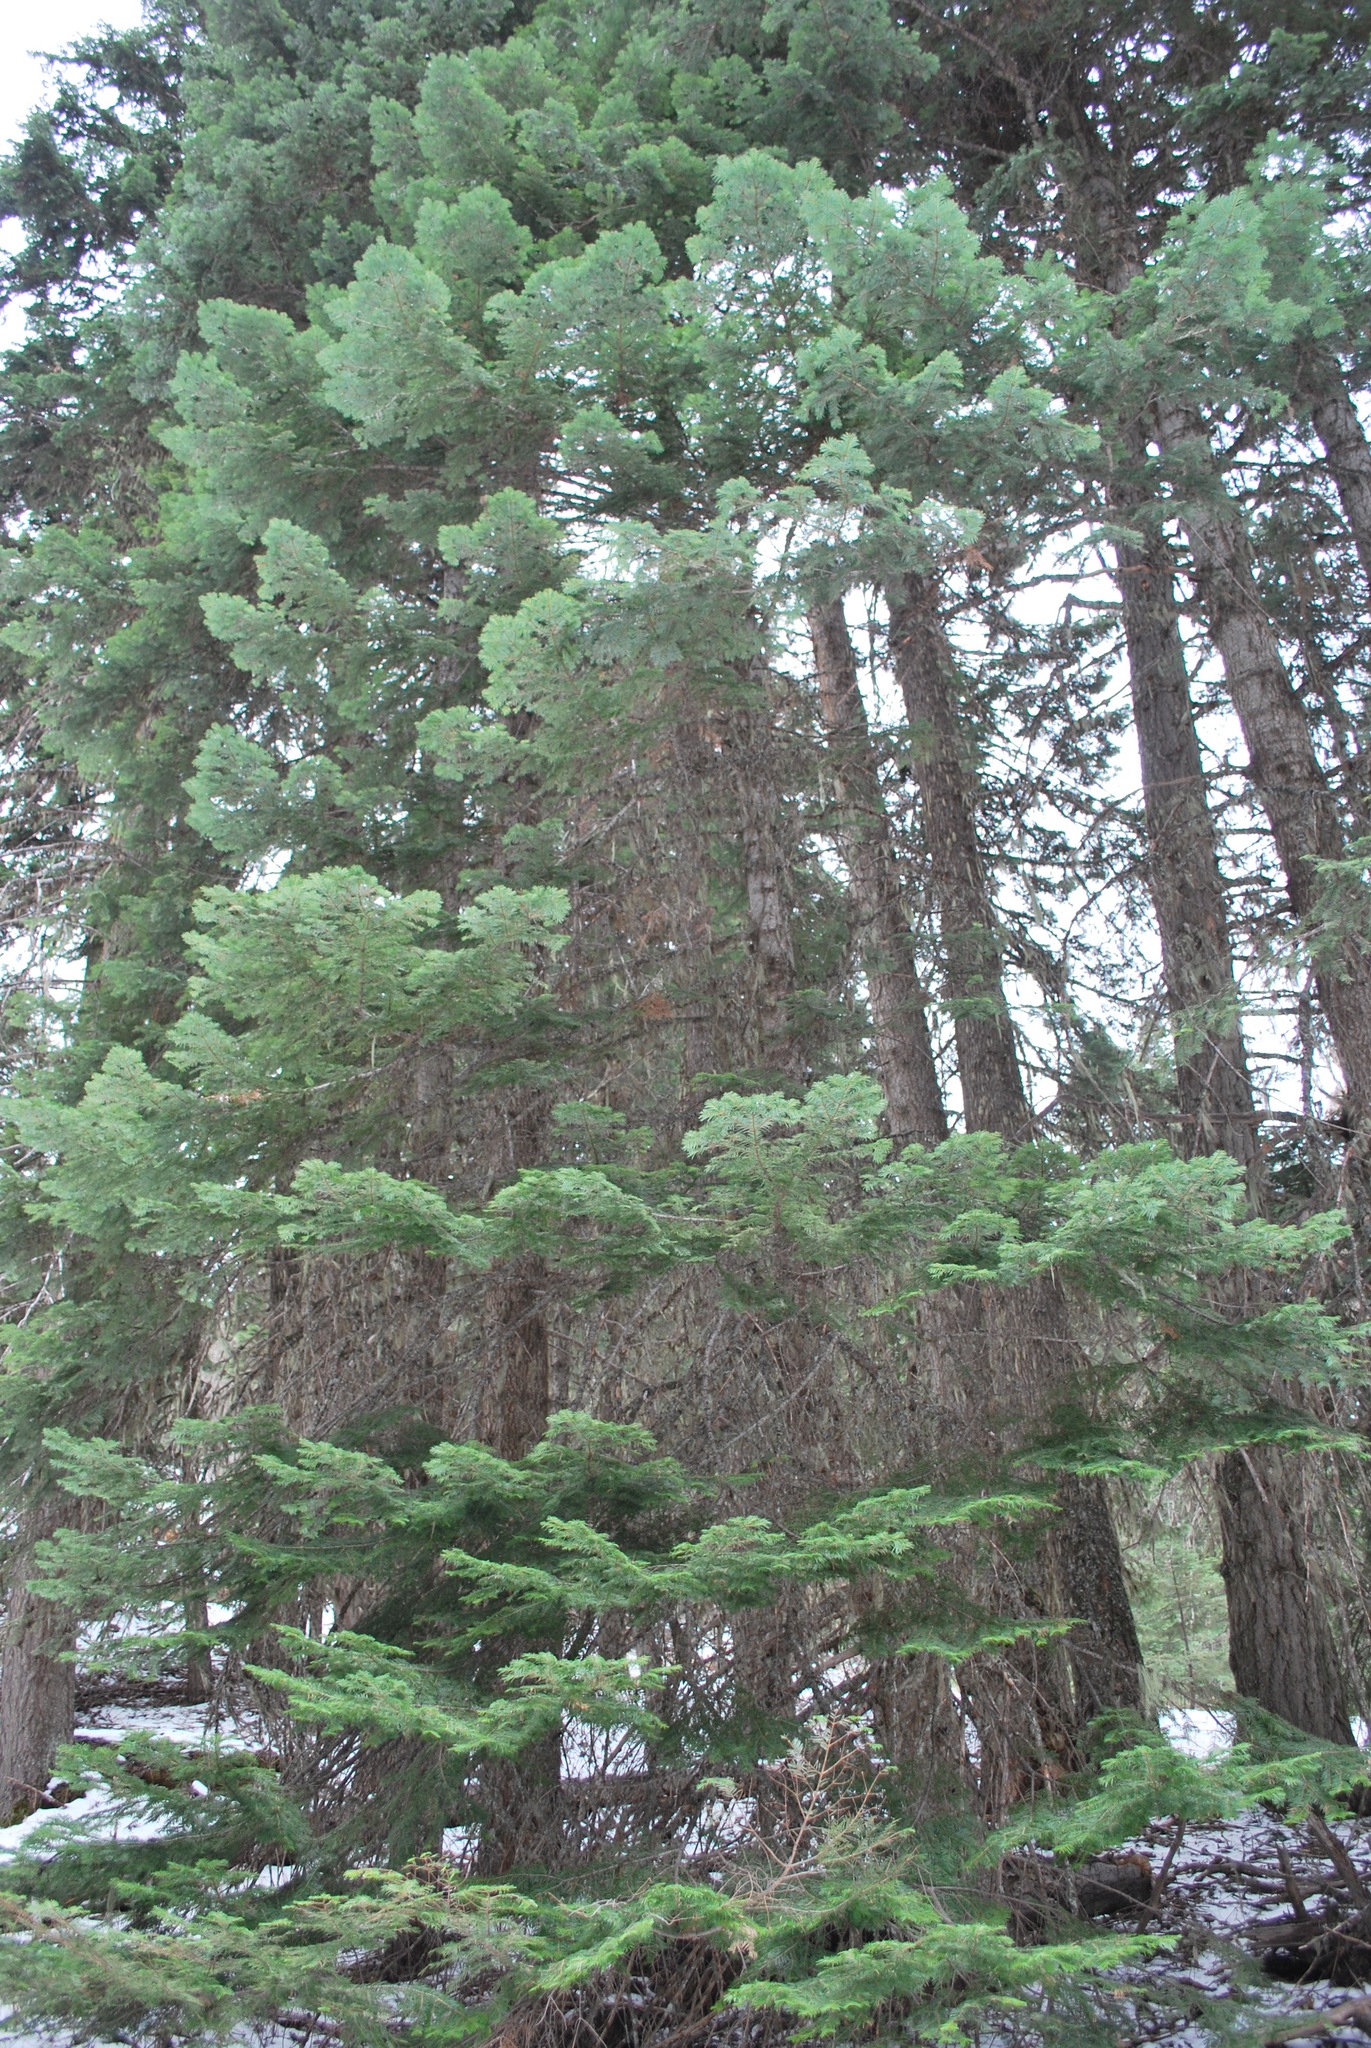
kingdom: Plantae
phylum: Tracheophyta
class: Pinopsida
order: Pinales
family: Pinaceae
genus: Abies
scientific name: Abies grandis
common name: Giant fir
